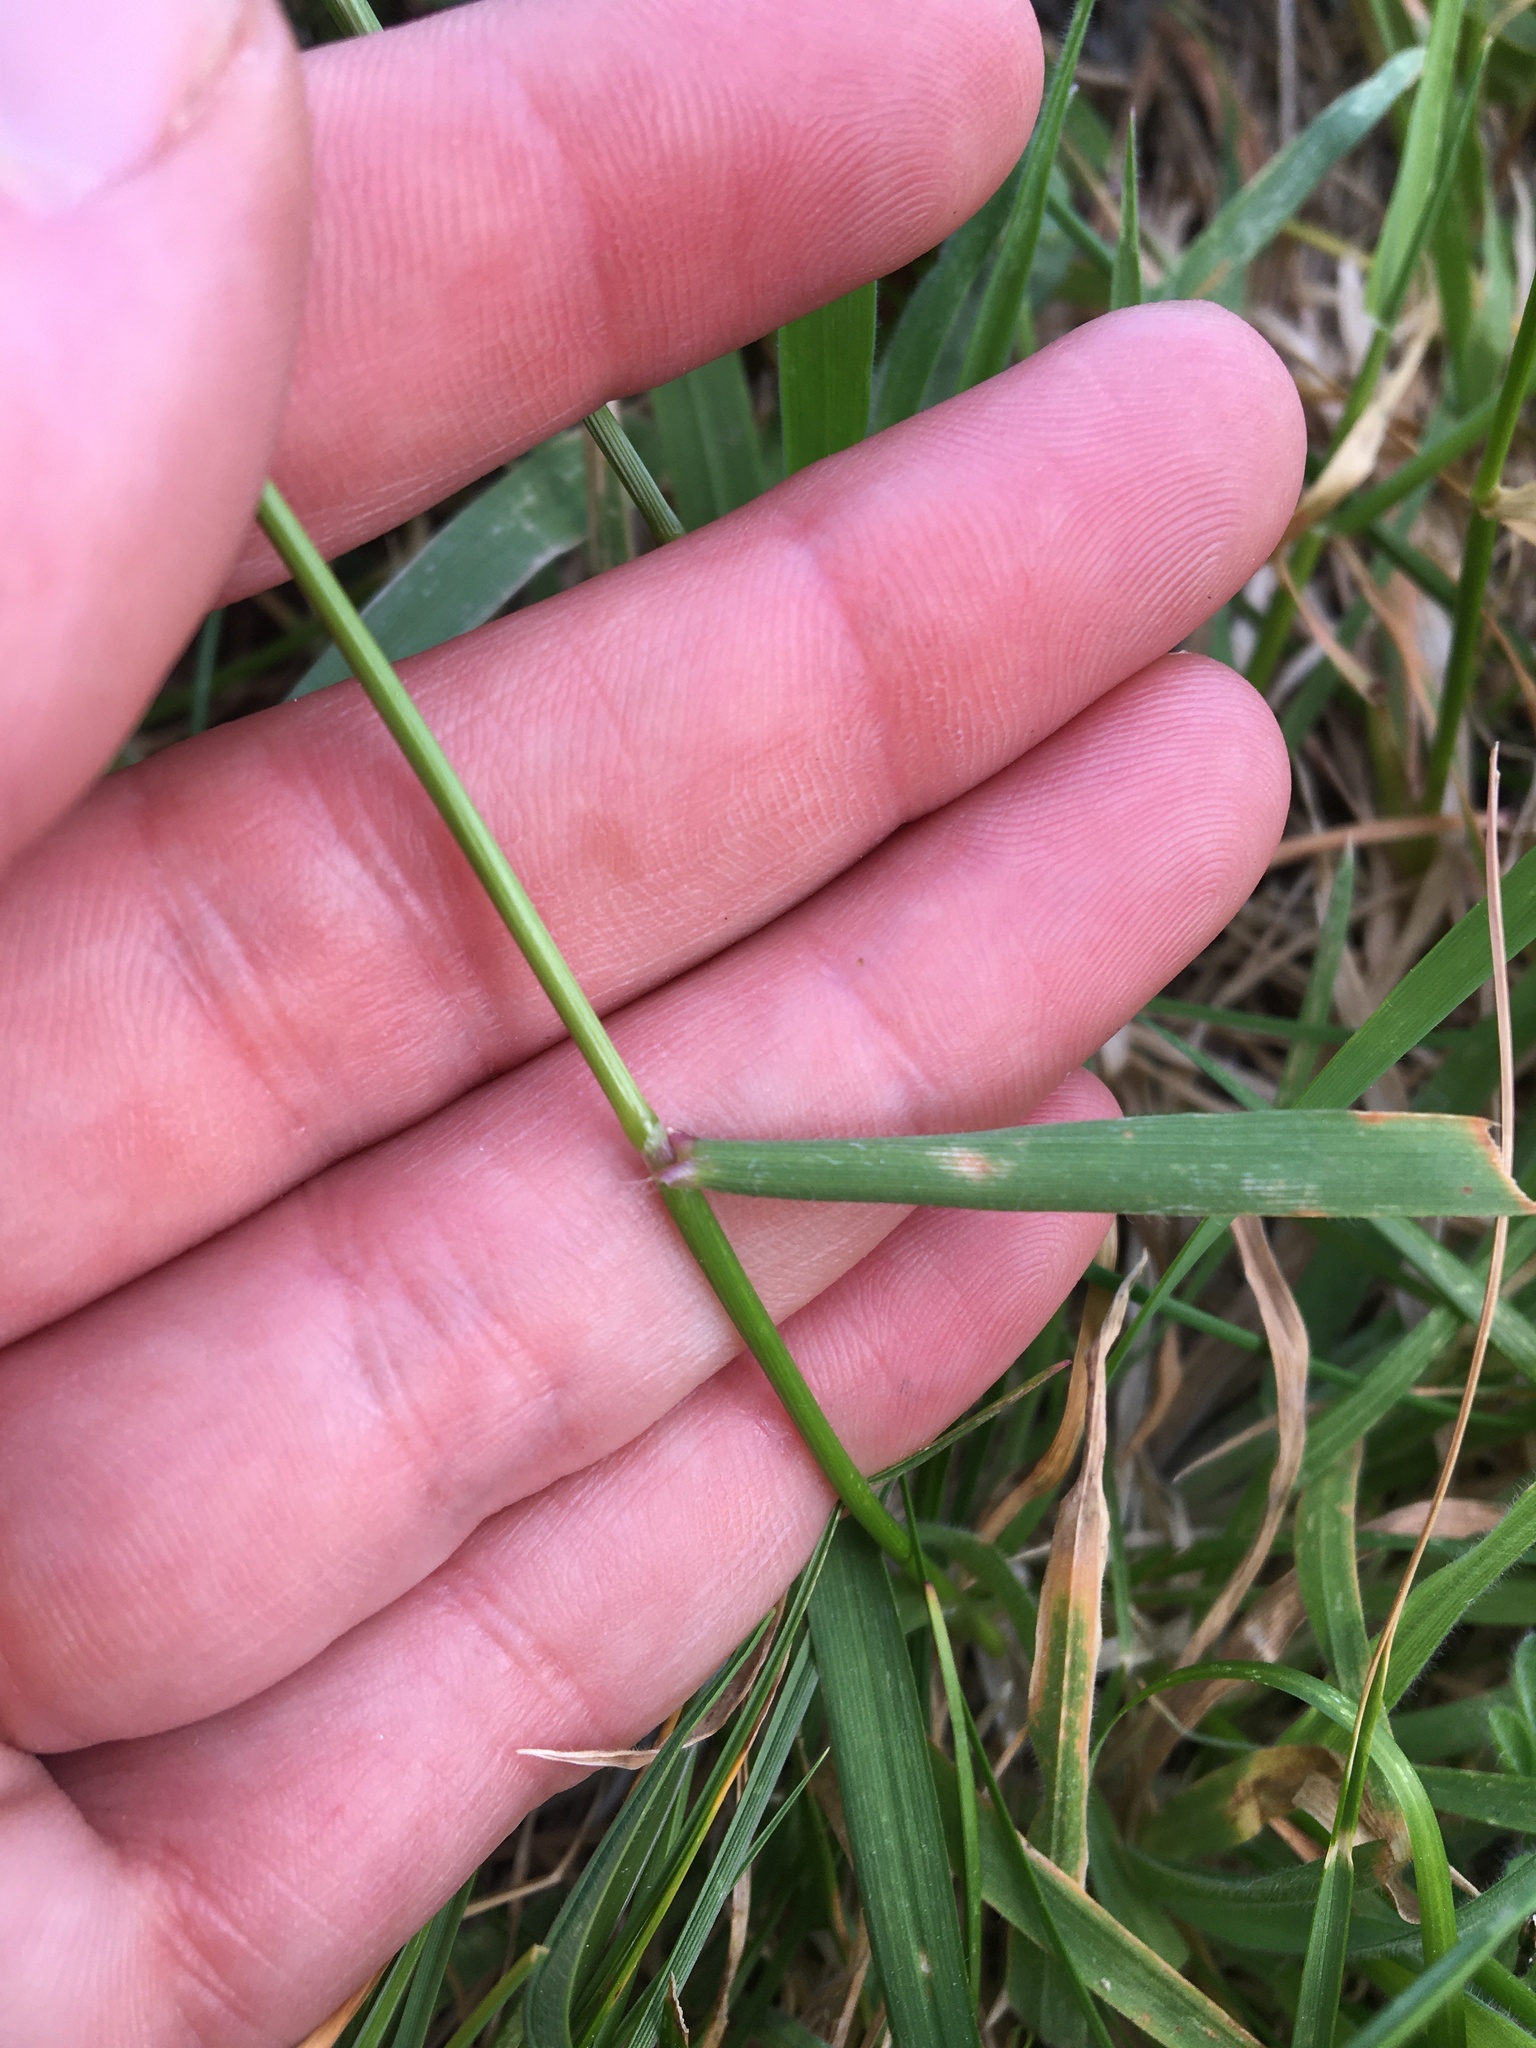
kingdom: Plantae
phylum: Tracheophyta
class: Liliopsida
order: Poales
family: Poaceae
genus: Anthoxanthum
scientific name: Anthoxanthum odoratum
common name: Sweet vernalgrass
